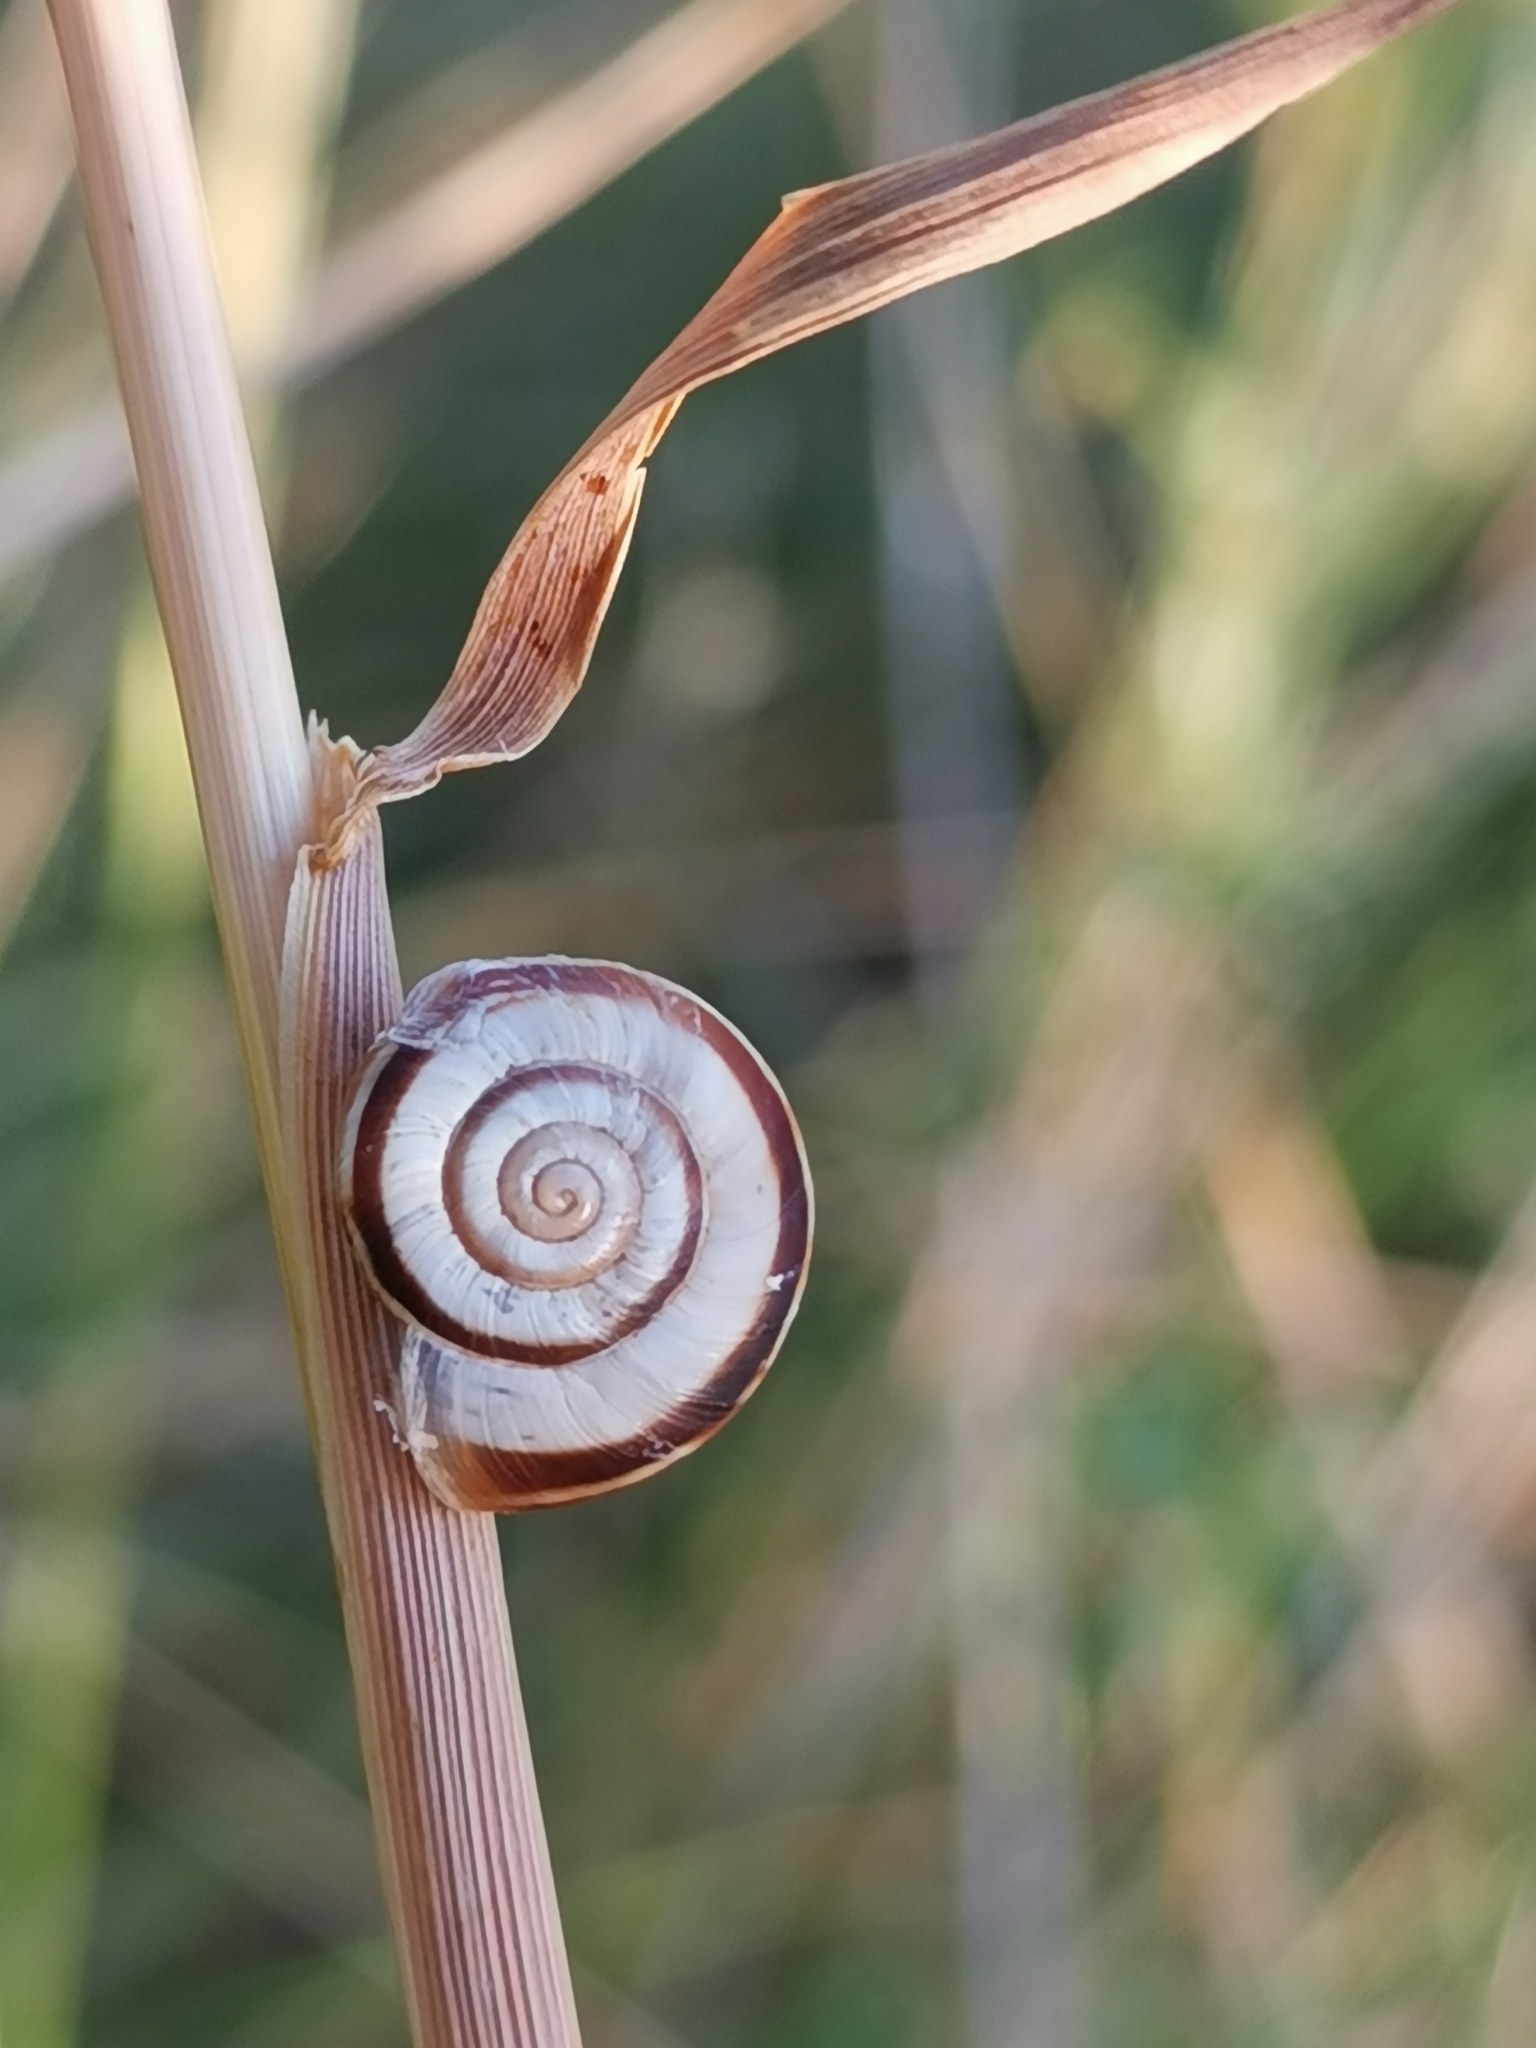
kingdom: Animalia
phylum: Mollusca
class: Gastropoda
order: Stylommatophora
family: Geomitridae
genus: Xerolenta
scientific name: Xerolenta obvia
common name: White heath snail
